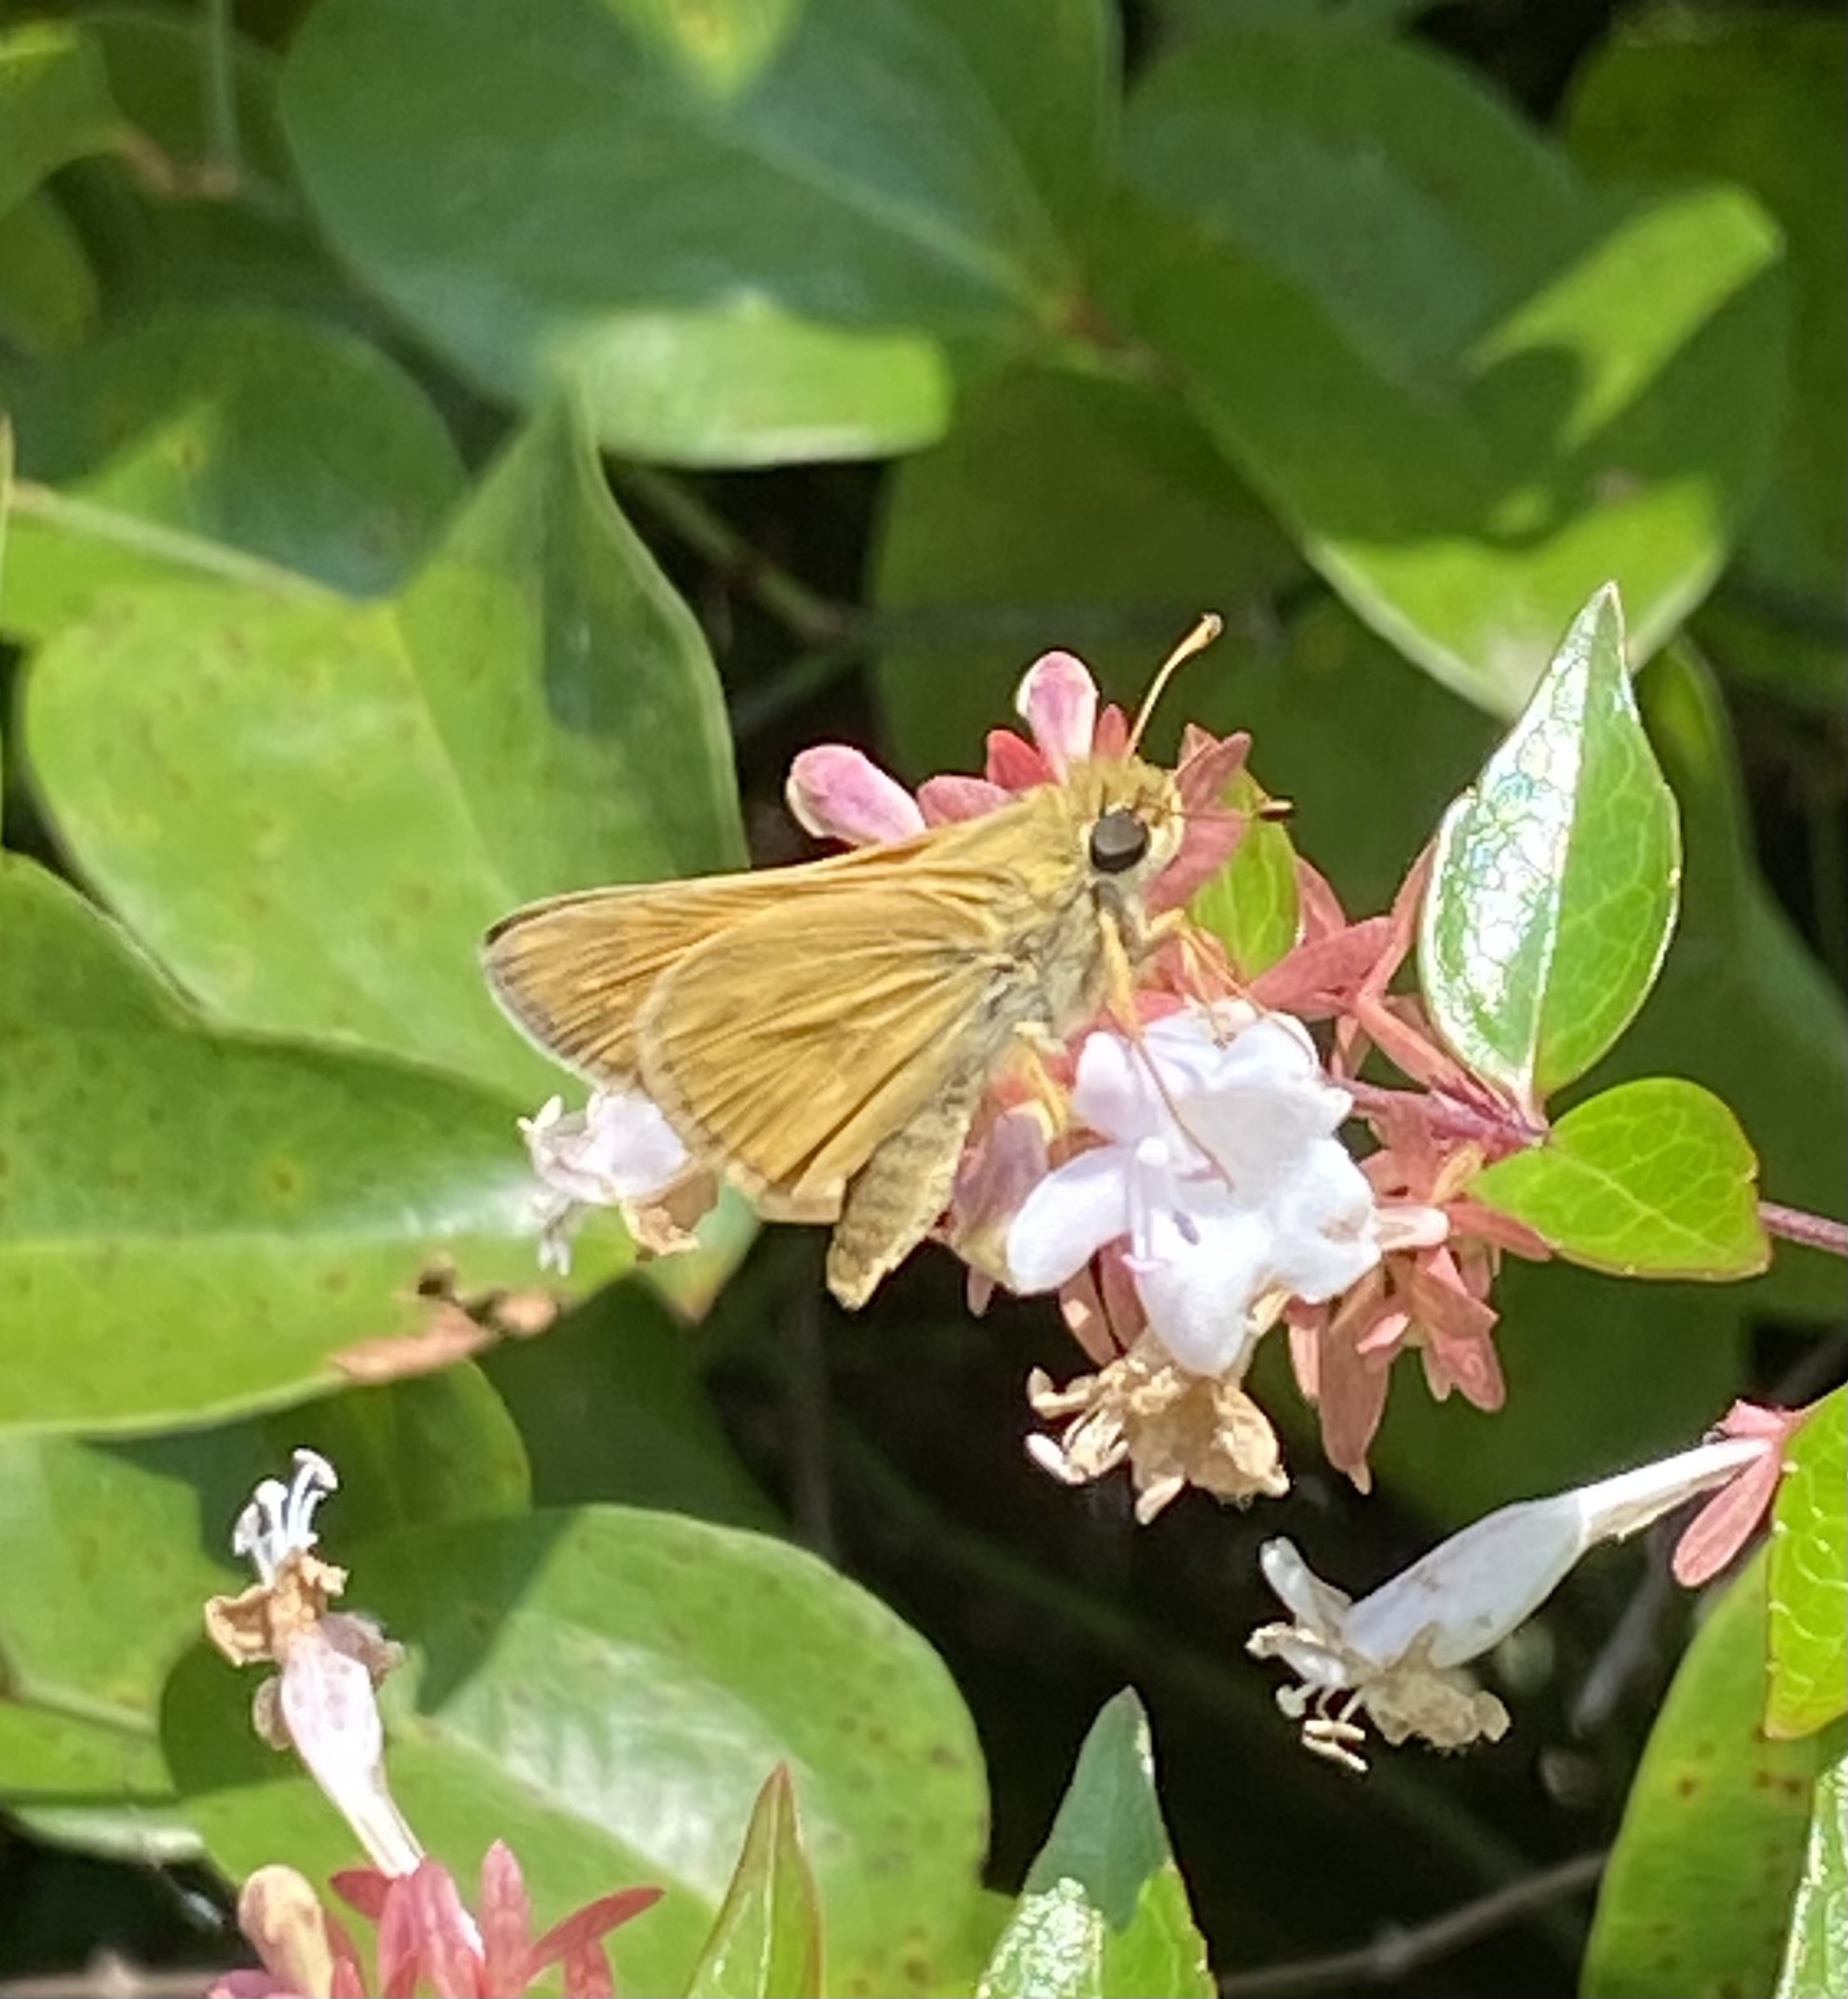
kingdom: Animalia
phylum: Arthropoda
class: Insecta
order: Lepidoptera
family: Hesperiidae
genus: Atalopedes
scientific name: Atalopedes
